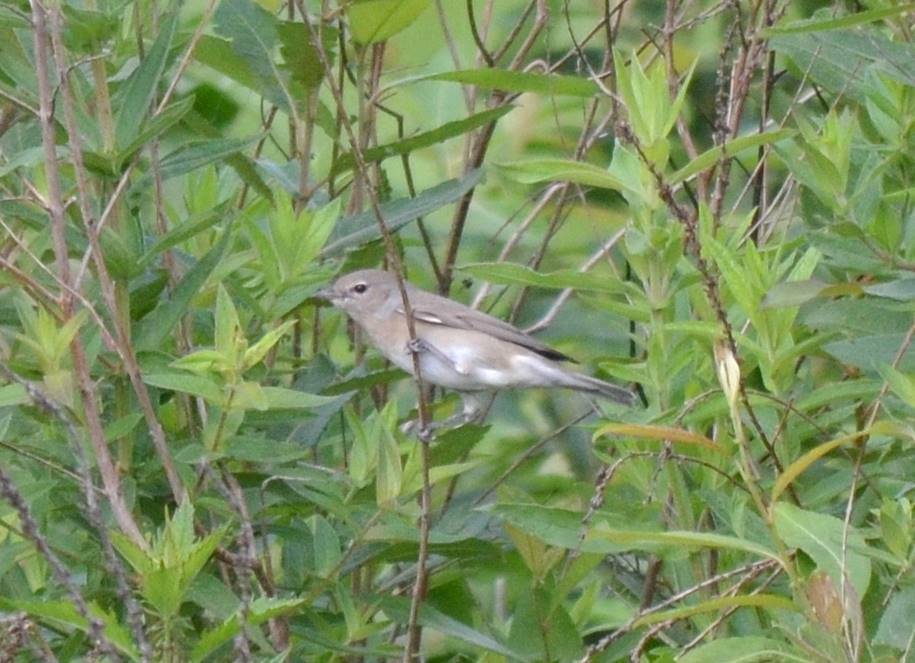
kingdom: Animalia
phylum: Chordata
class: Aves
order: Passeriformes
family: Sylviidae
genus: Sylvia
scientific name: Sylvia borin
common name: Garden warbler
